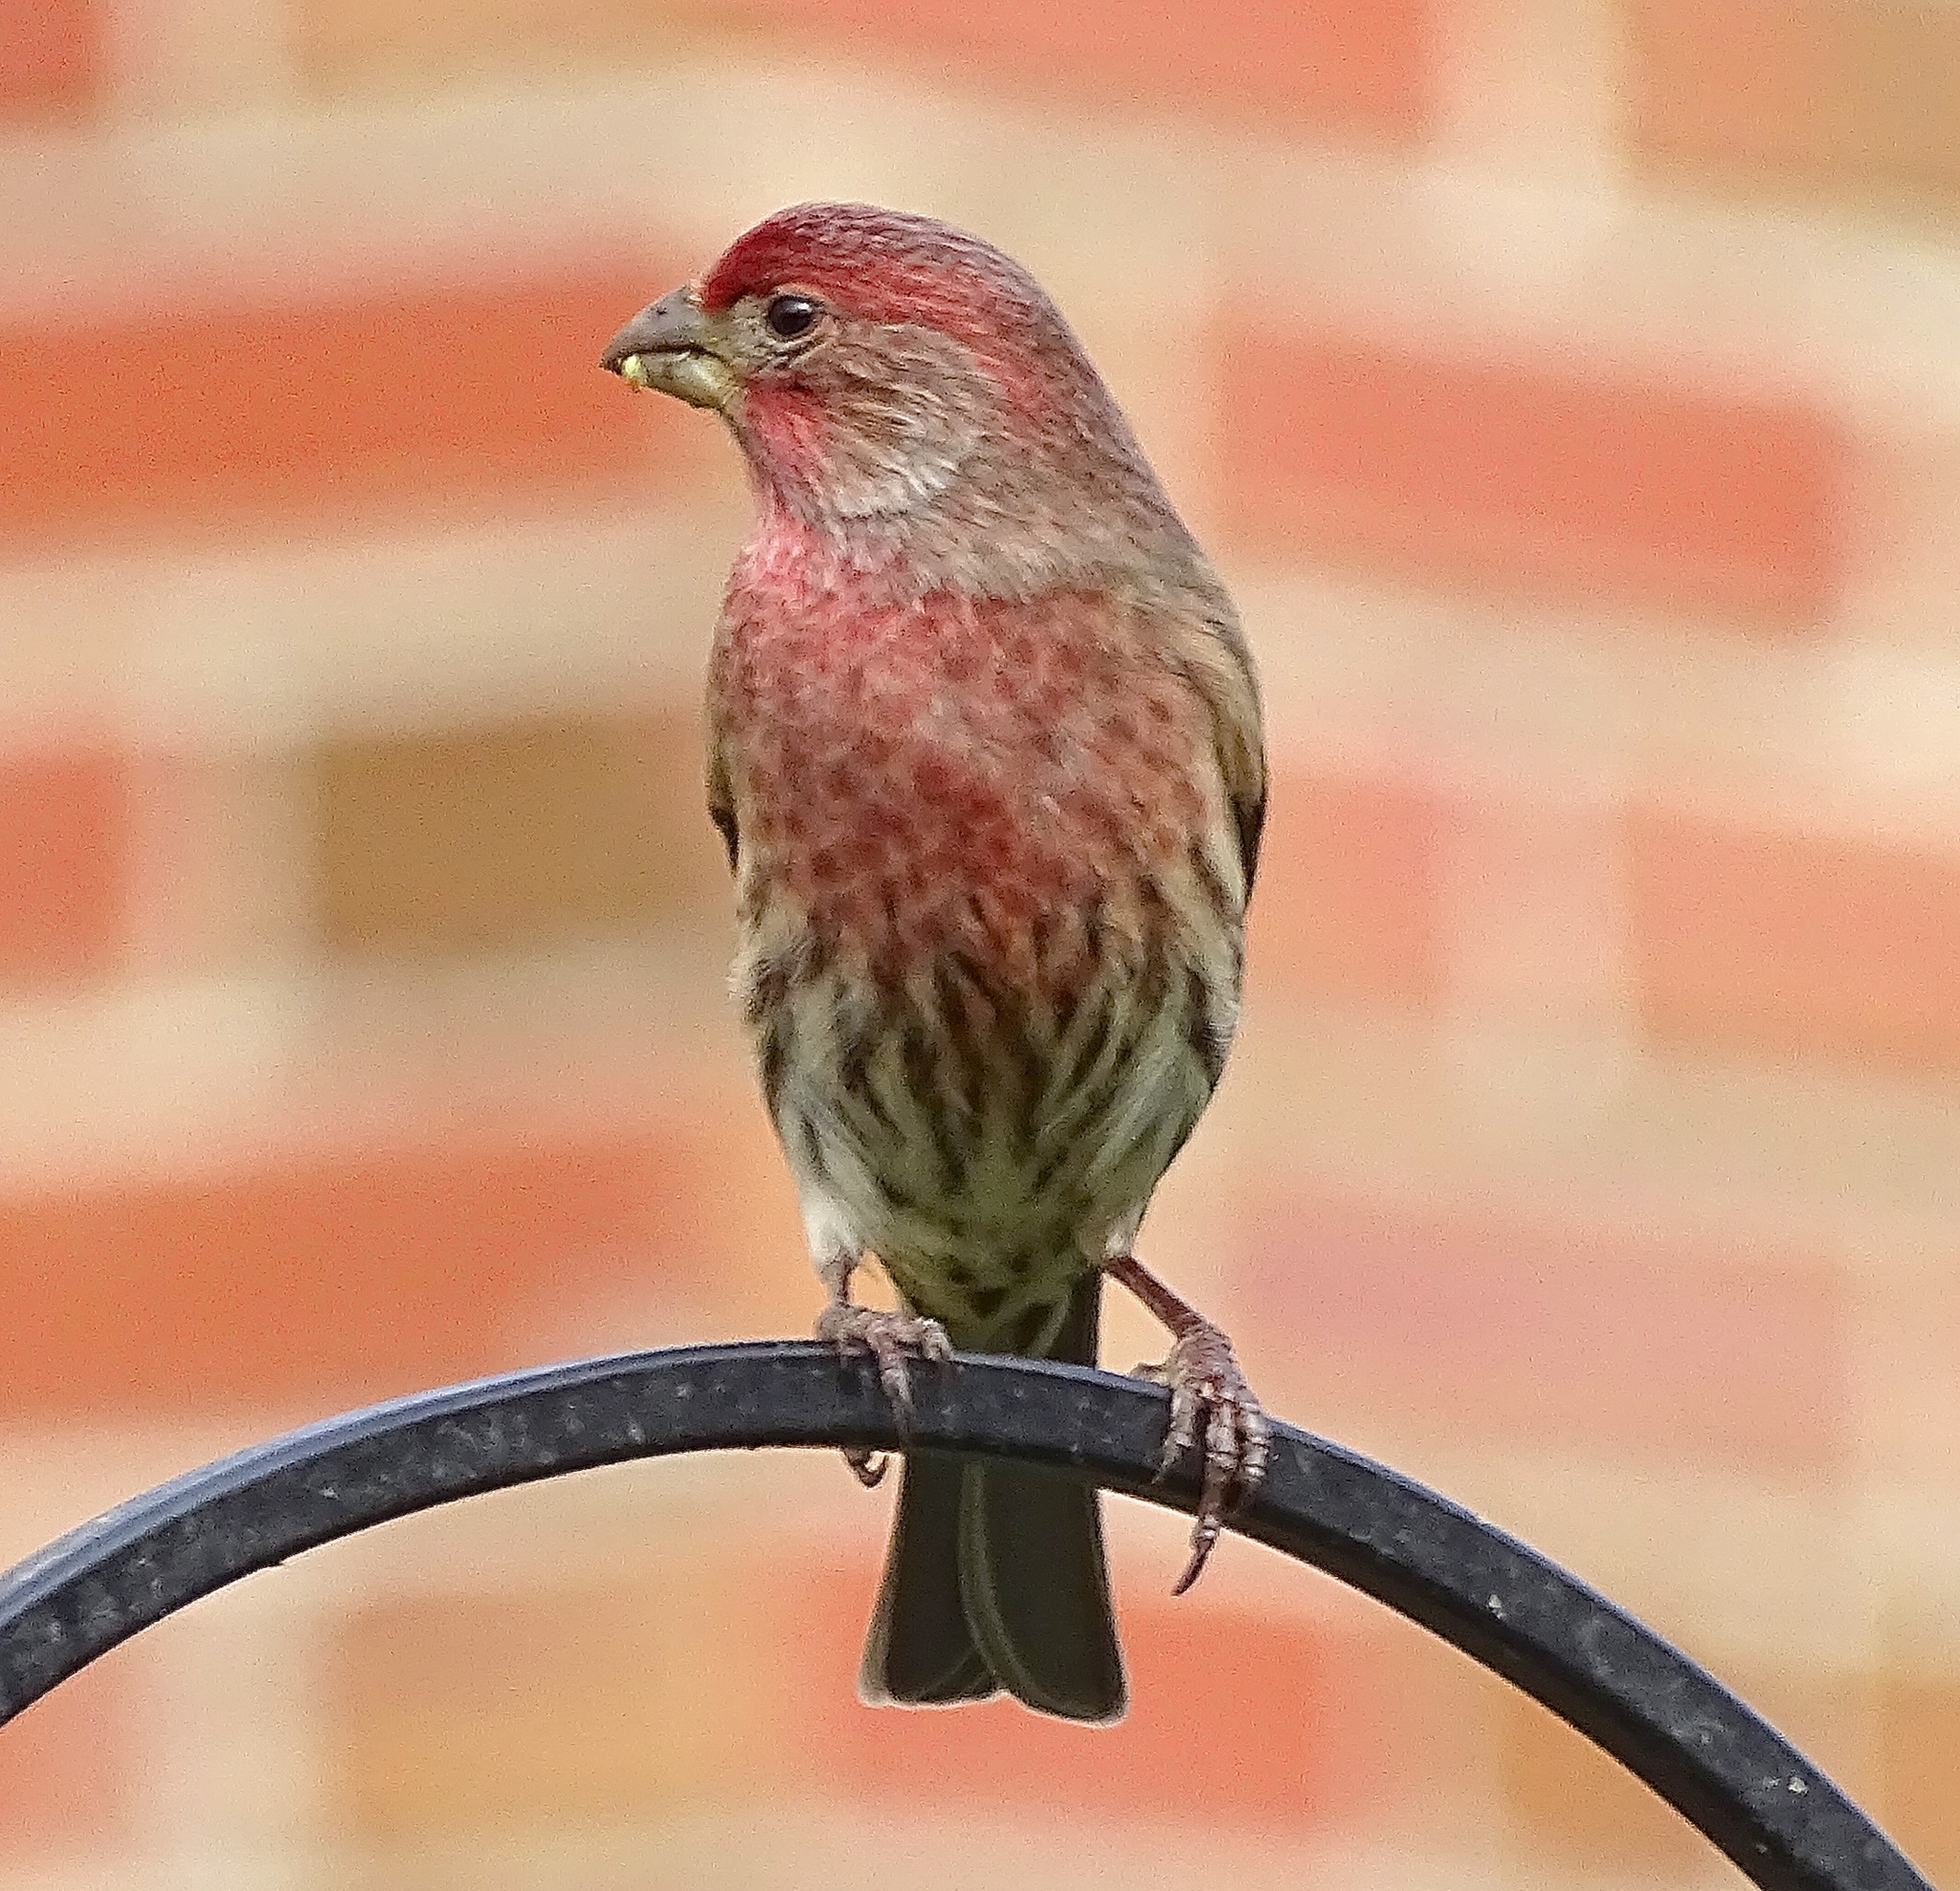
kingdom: Animalia
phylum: Chordata
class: Aves
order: Passeriformes
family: Fringillidae
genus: Haemorhous
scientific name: Haemorhous mexicanus
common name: House finch
